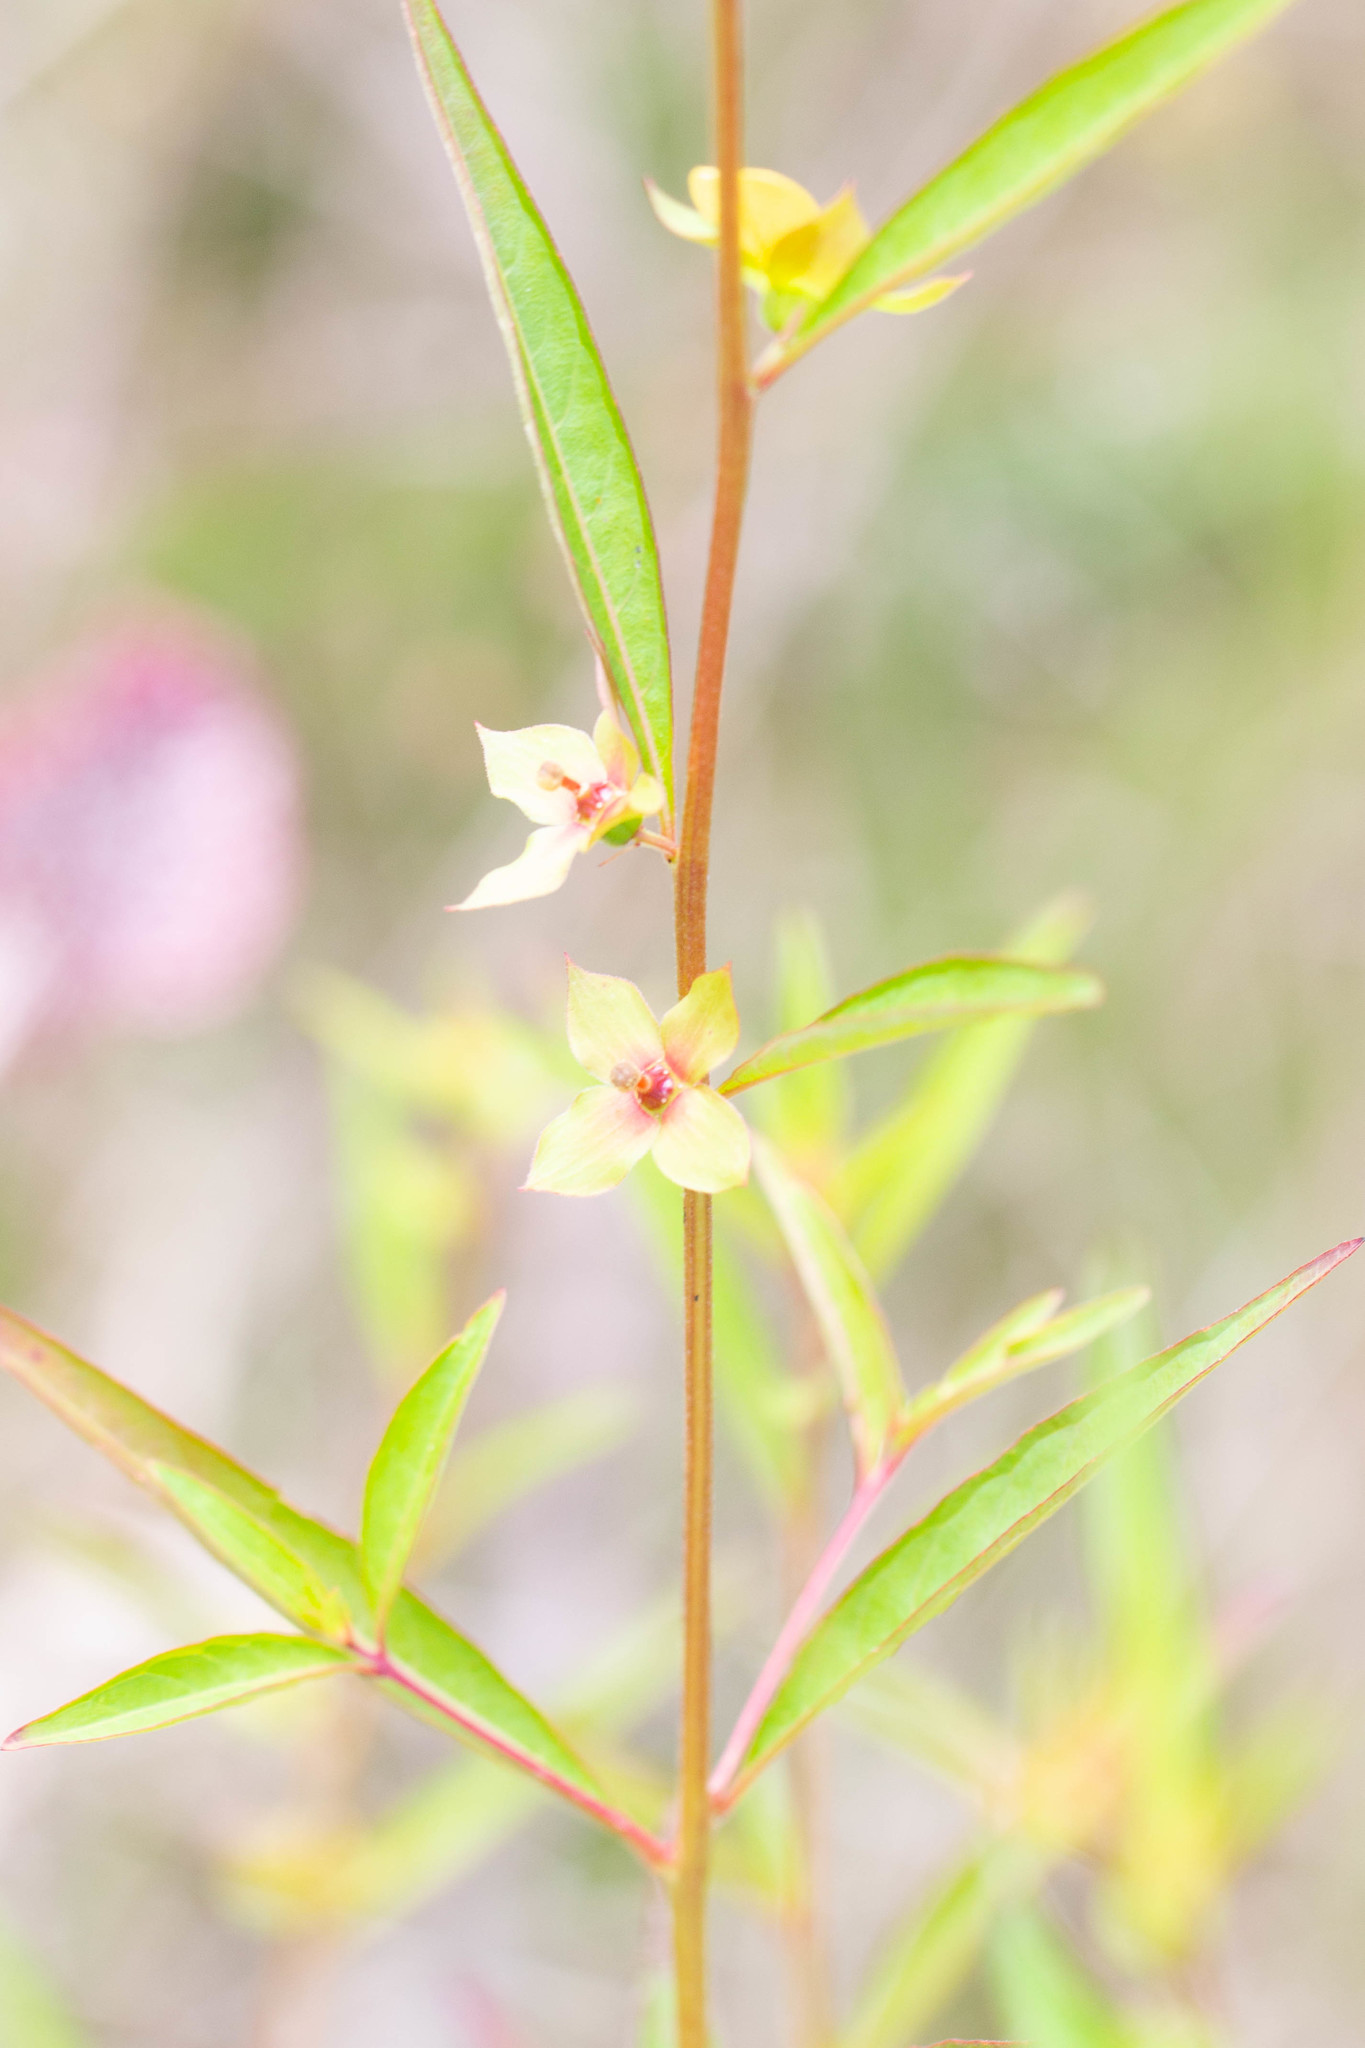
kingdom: Plantae
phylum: Tracheophyta
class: Magnoliopsida
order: Myrtales
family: Onagraceae
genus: Ludwigia
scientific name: Ludwigia alternifolia
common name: Rattlebox
